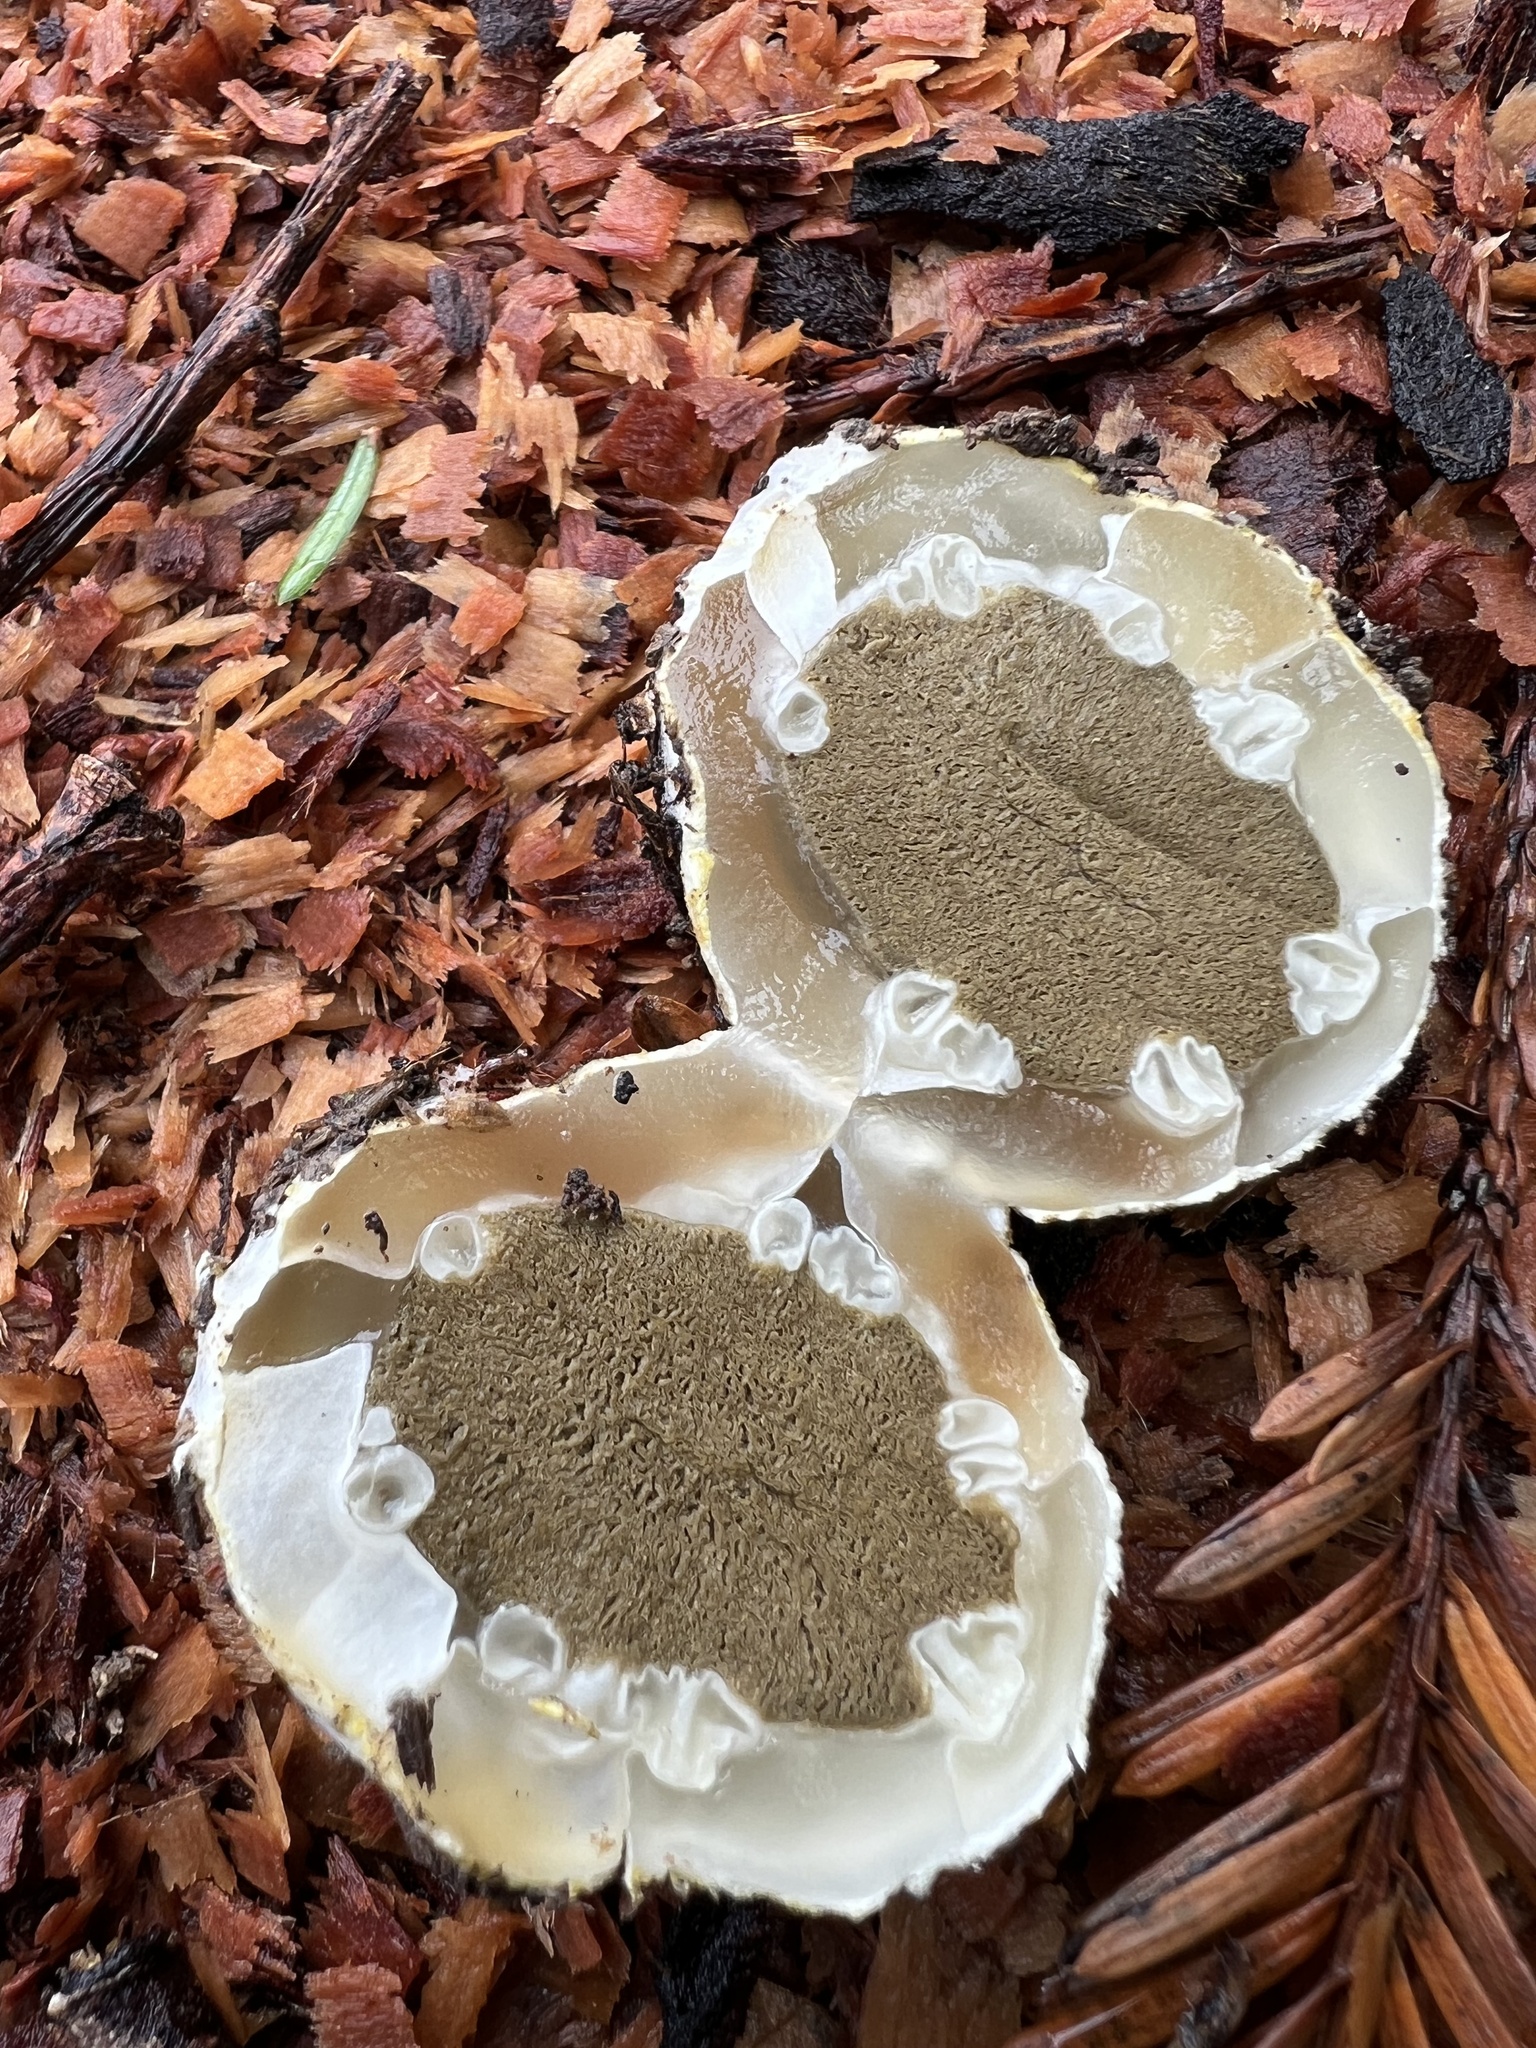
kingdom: Fungi
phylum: Basidiomycota
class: Agaricomycetes
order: Phallales
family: Phallaceae
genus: Ileodictyon
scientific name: Ileodictyon cibarium
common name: Basket fungus
